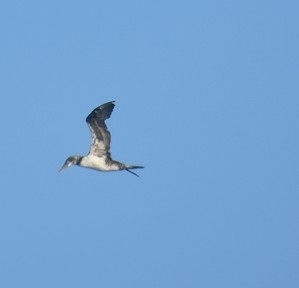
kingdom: Animalia
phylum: Chordata
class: Aves
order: Suliformes
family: Sulidae
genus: Morus
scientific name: Morus bassanus
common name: Northern gannet
